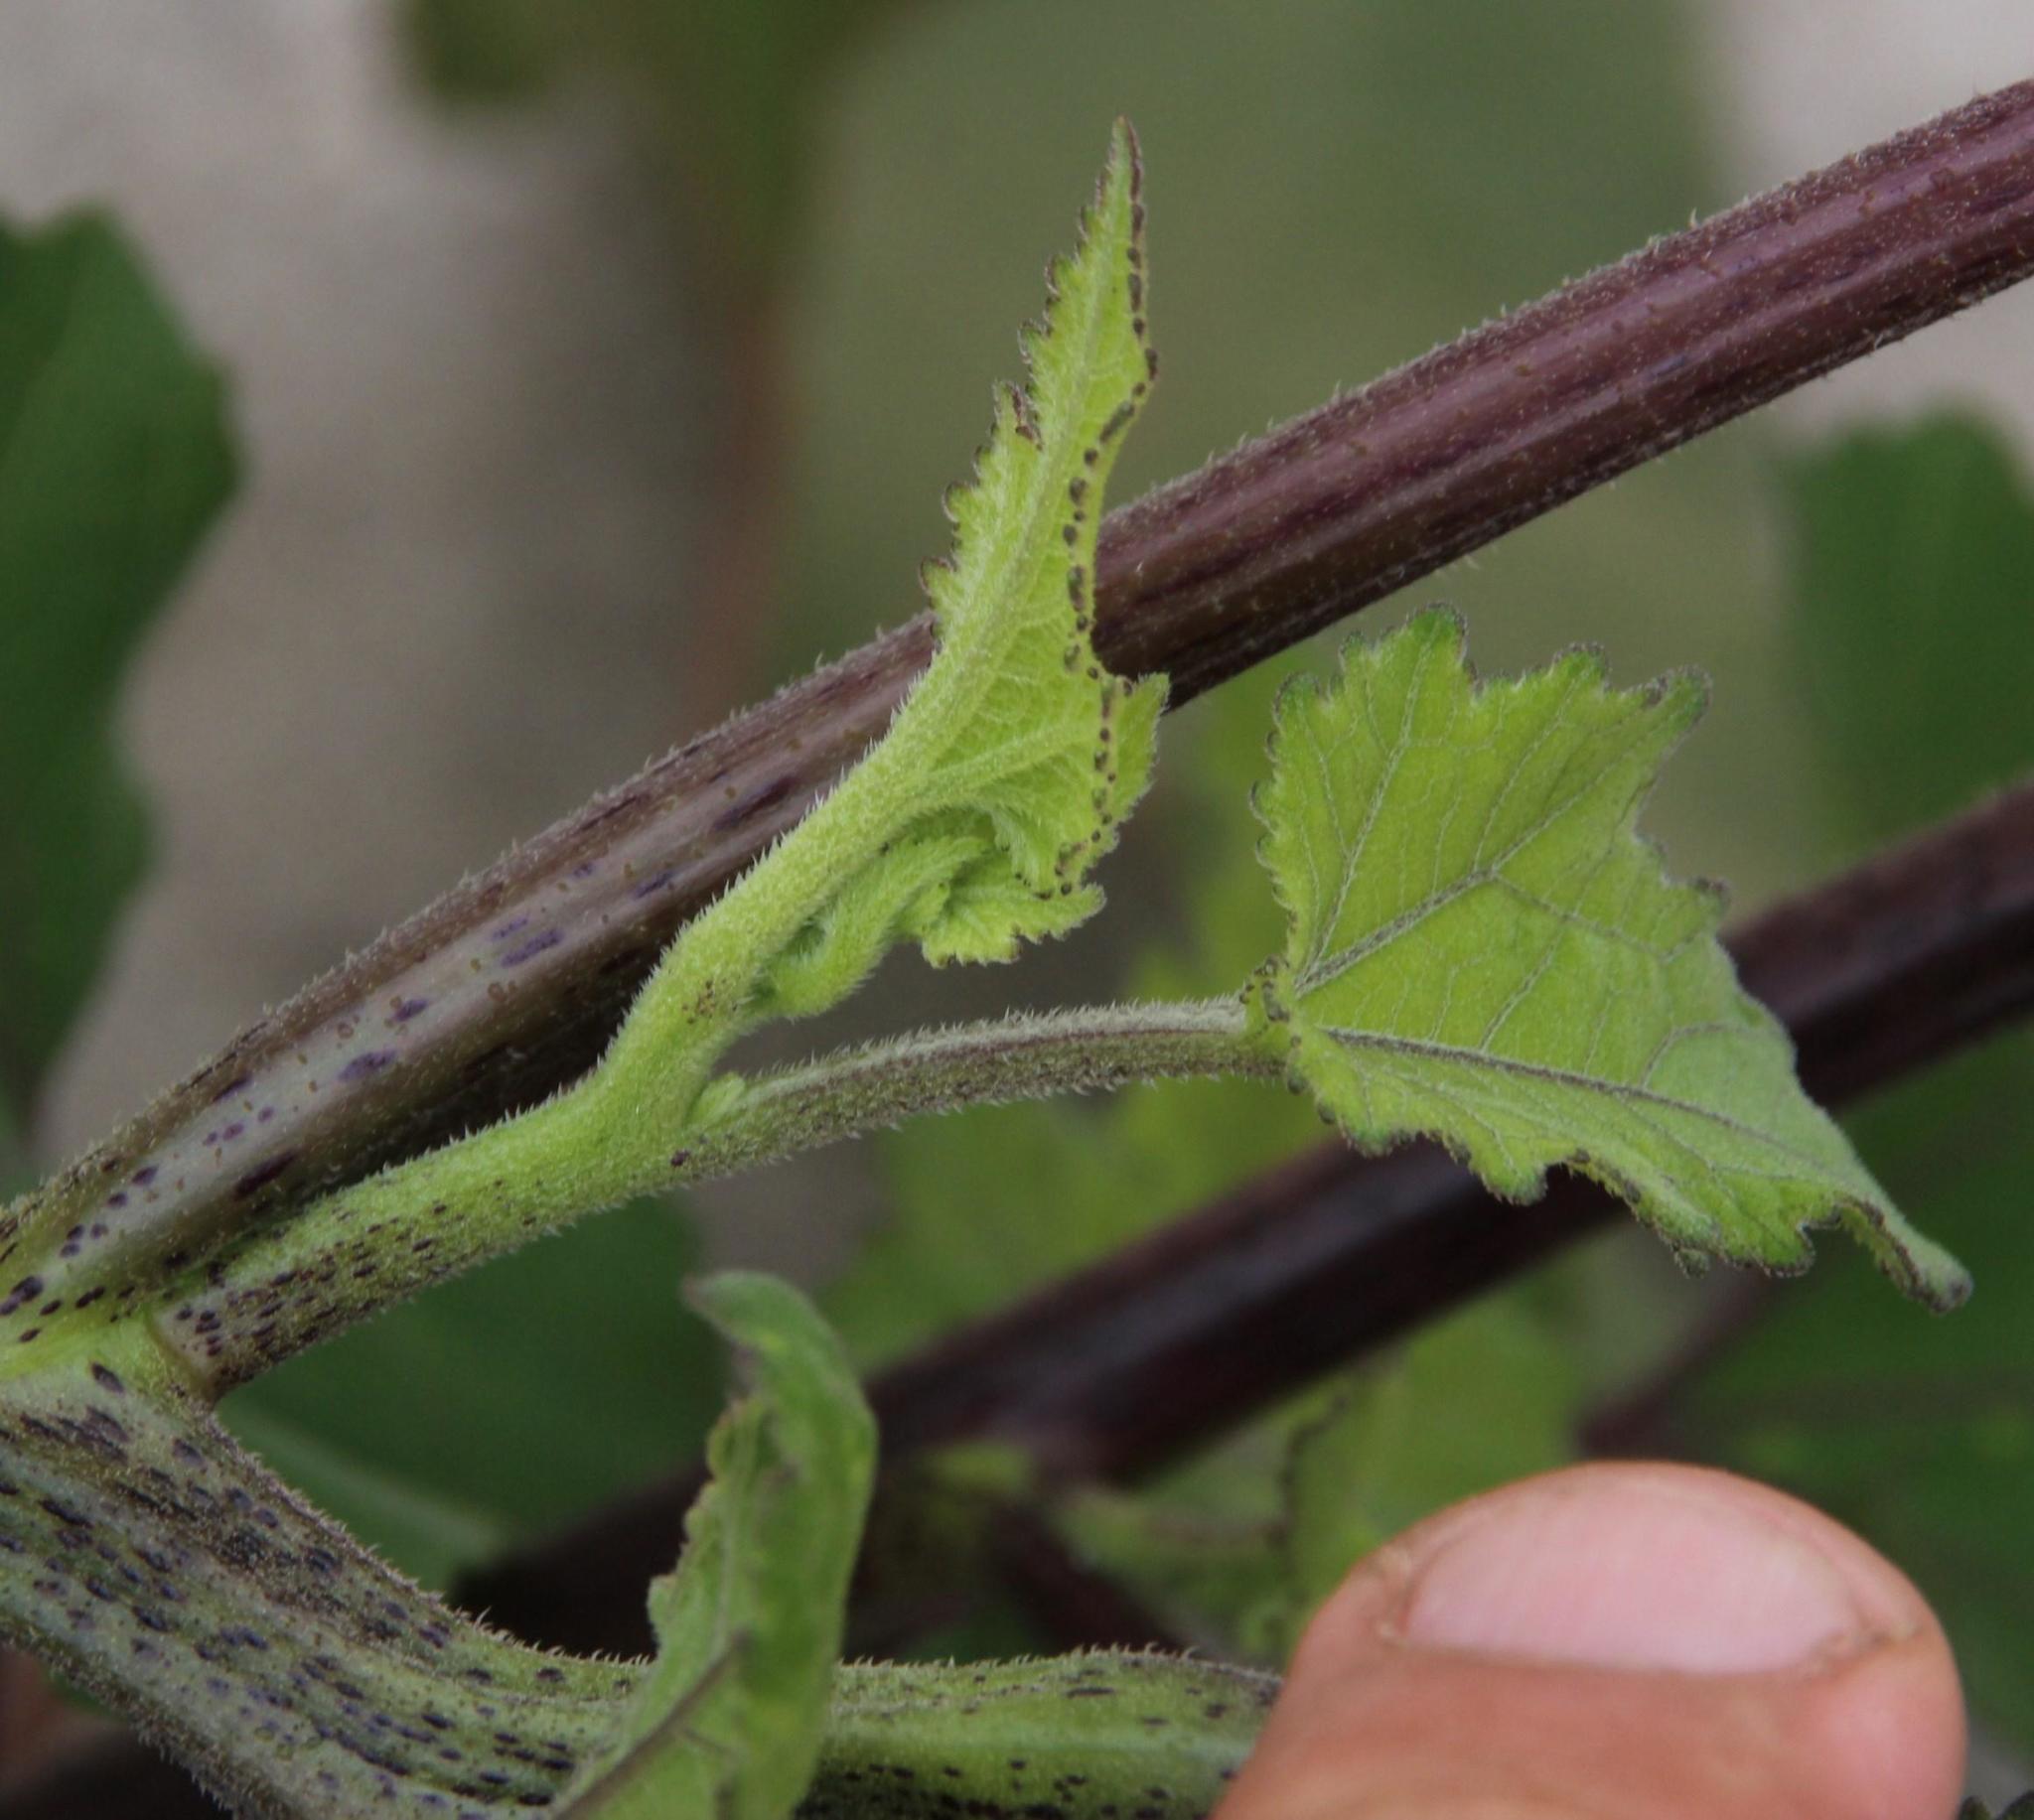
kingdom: Plantae
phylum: Tracheophyta
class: Magnoliopsida
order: Asterales
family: Asteraceae
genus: Xanthium
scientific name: Xanthium strumarium
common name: Rough cocklebur
